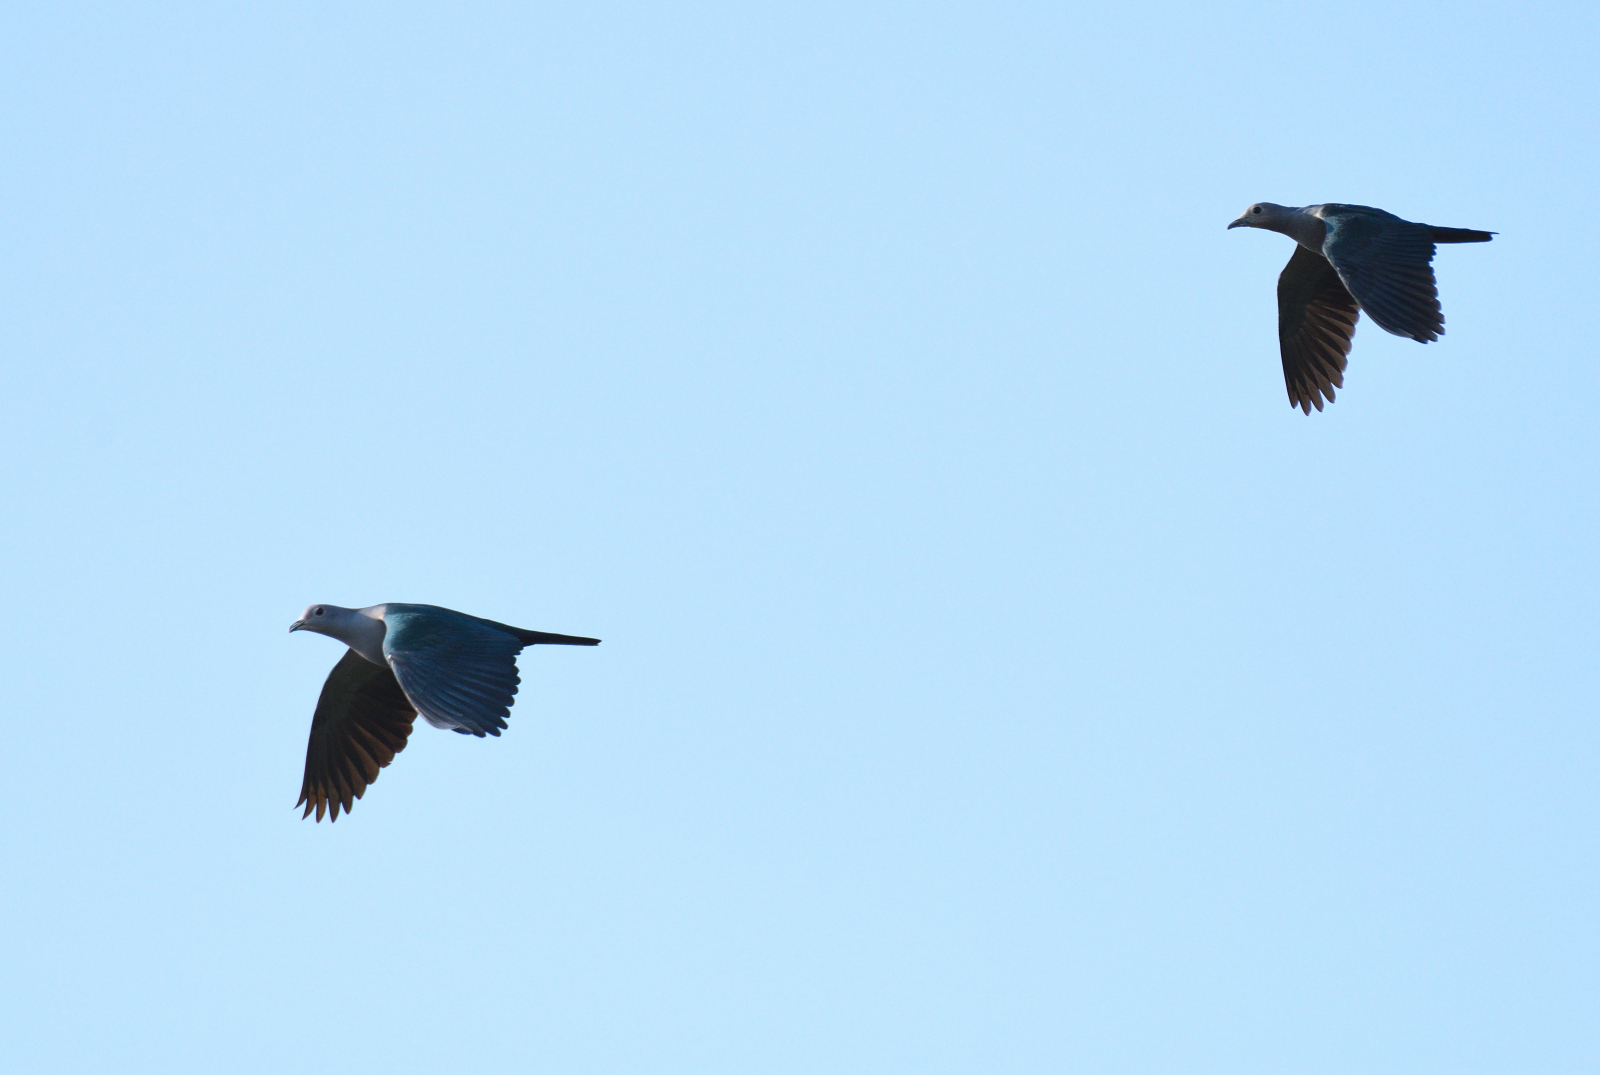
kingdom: Animalia
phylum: Chordata
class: Aves
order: Columbiformes
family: Columbidae
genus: Ducula
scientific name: Ducula aenea
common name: Green imperial pigeon
